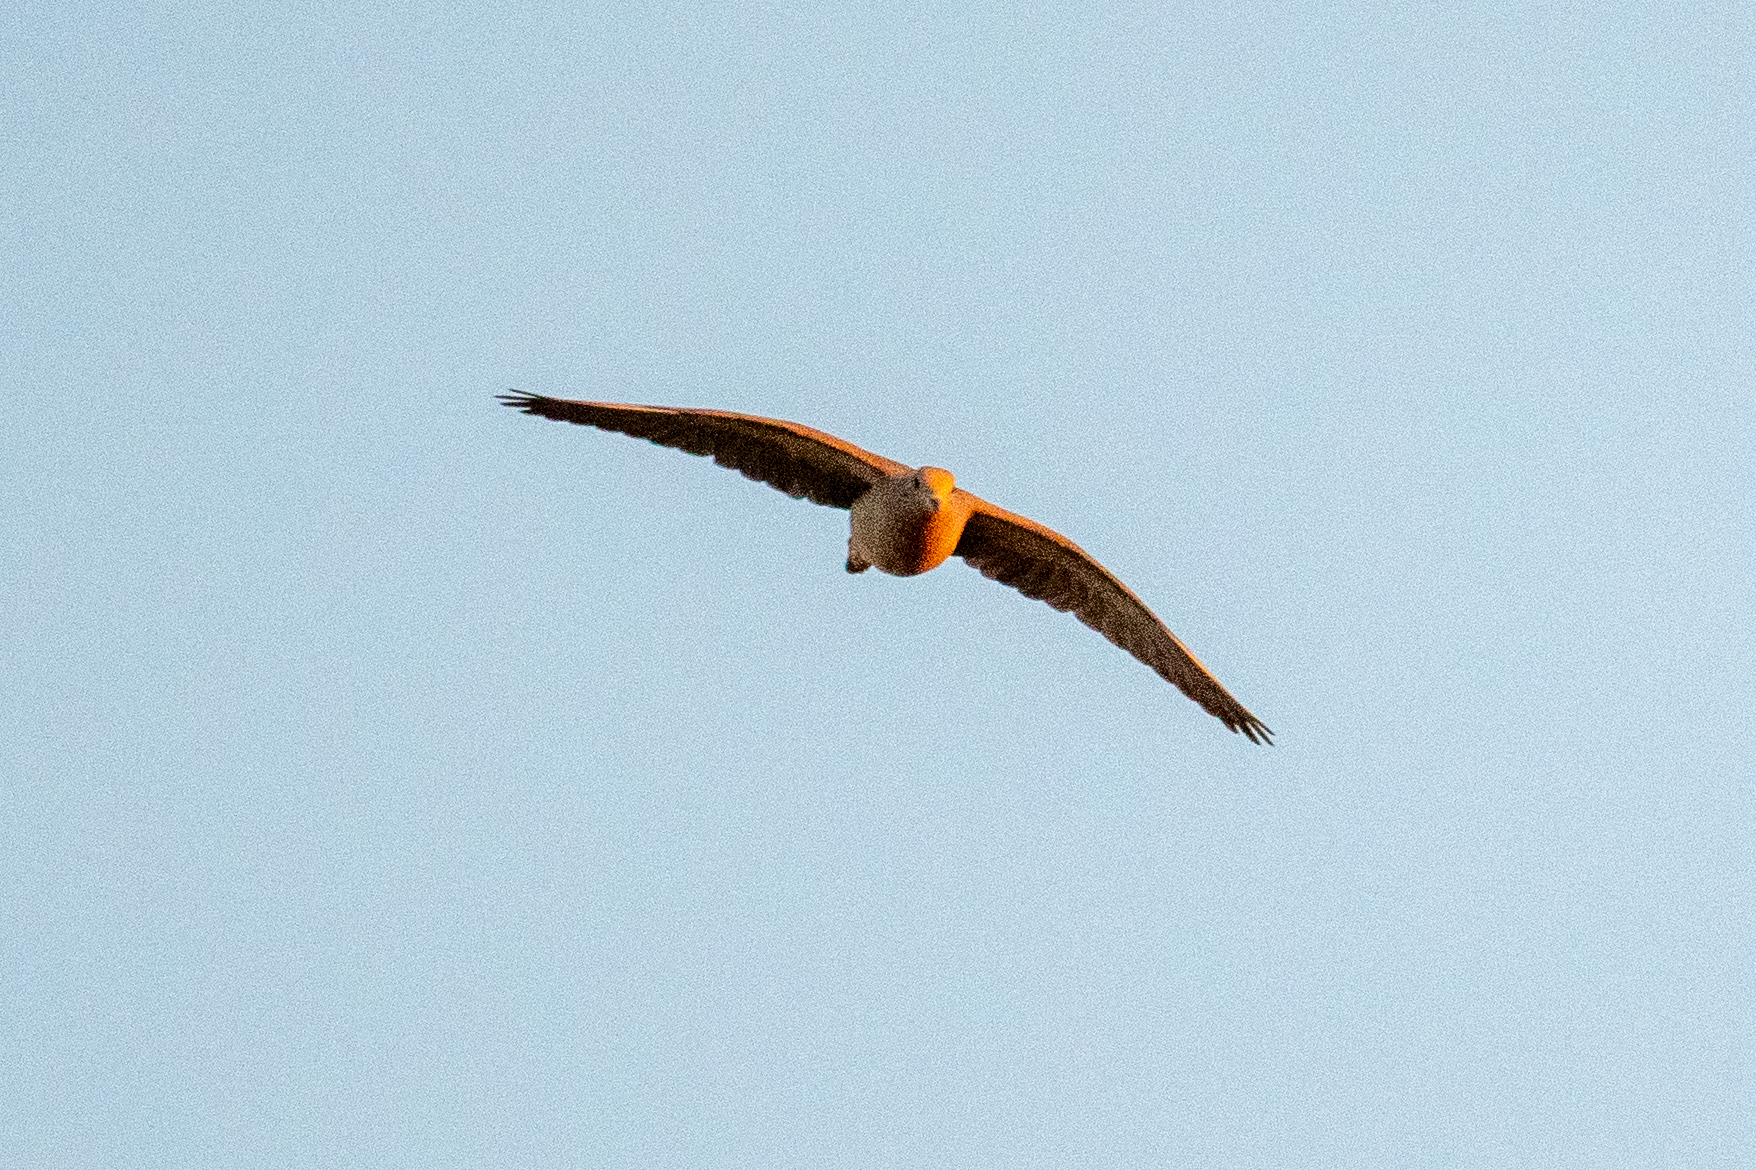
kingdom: Animalia
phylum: Chordata
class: Aves
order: Columbiformes
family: Columbidae
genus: Zenaida
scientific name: Zenaida macroura
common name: Mourning dove
